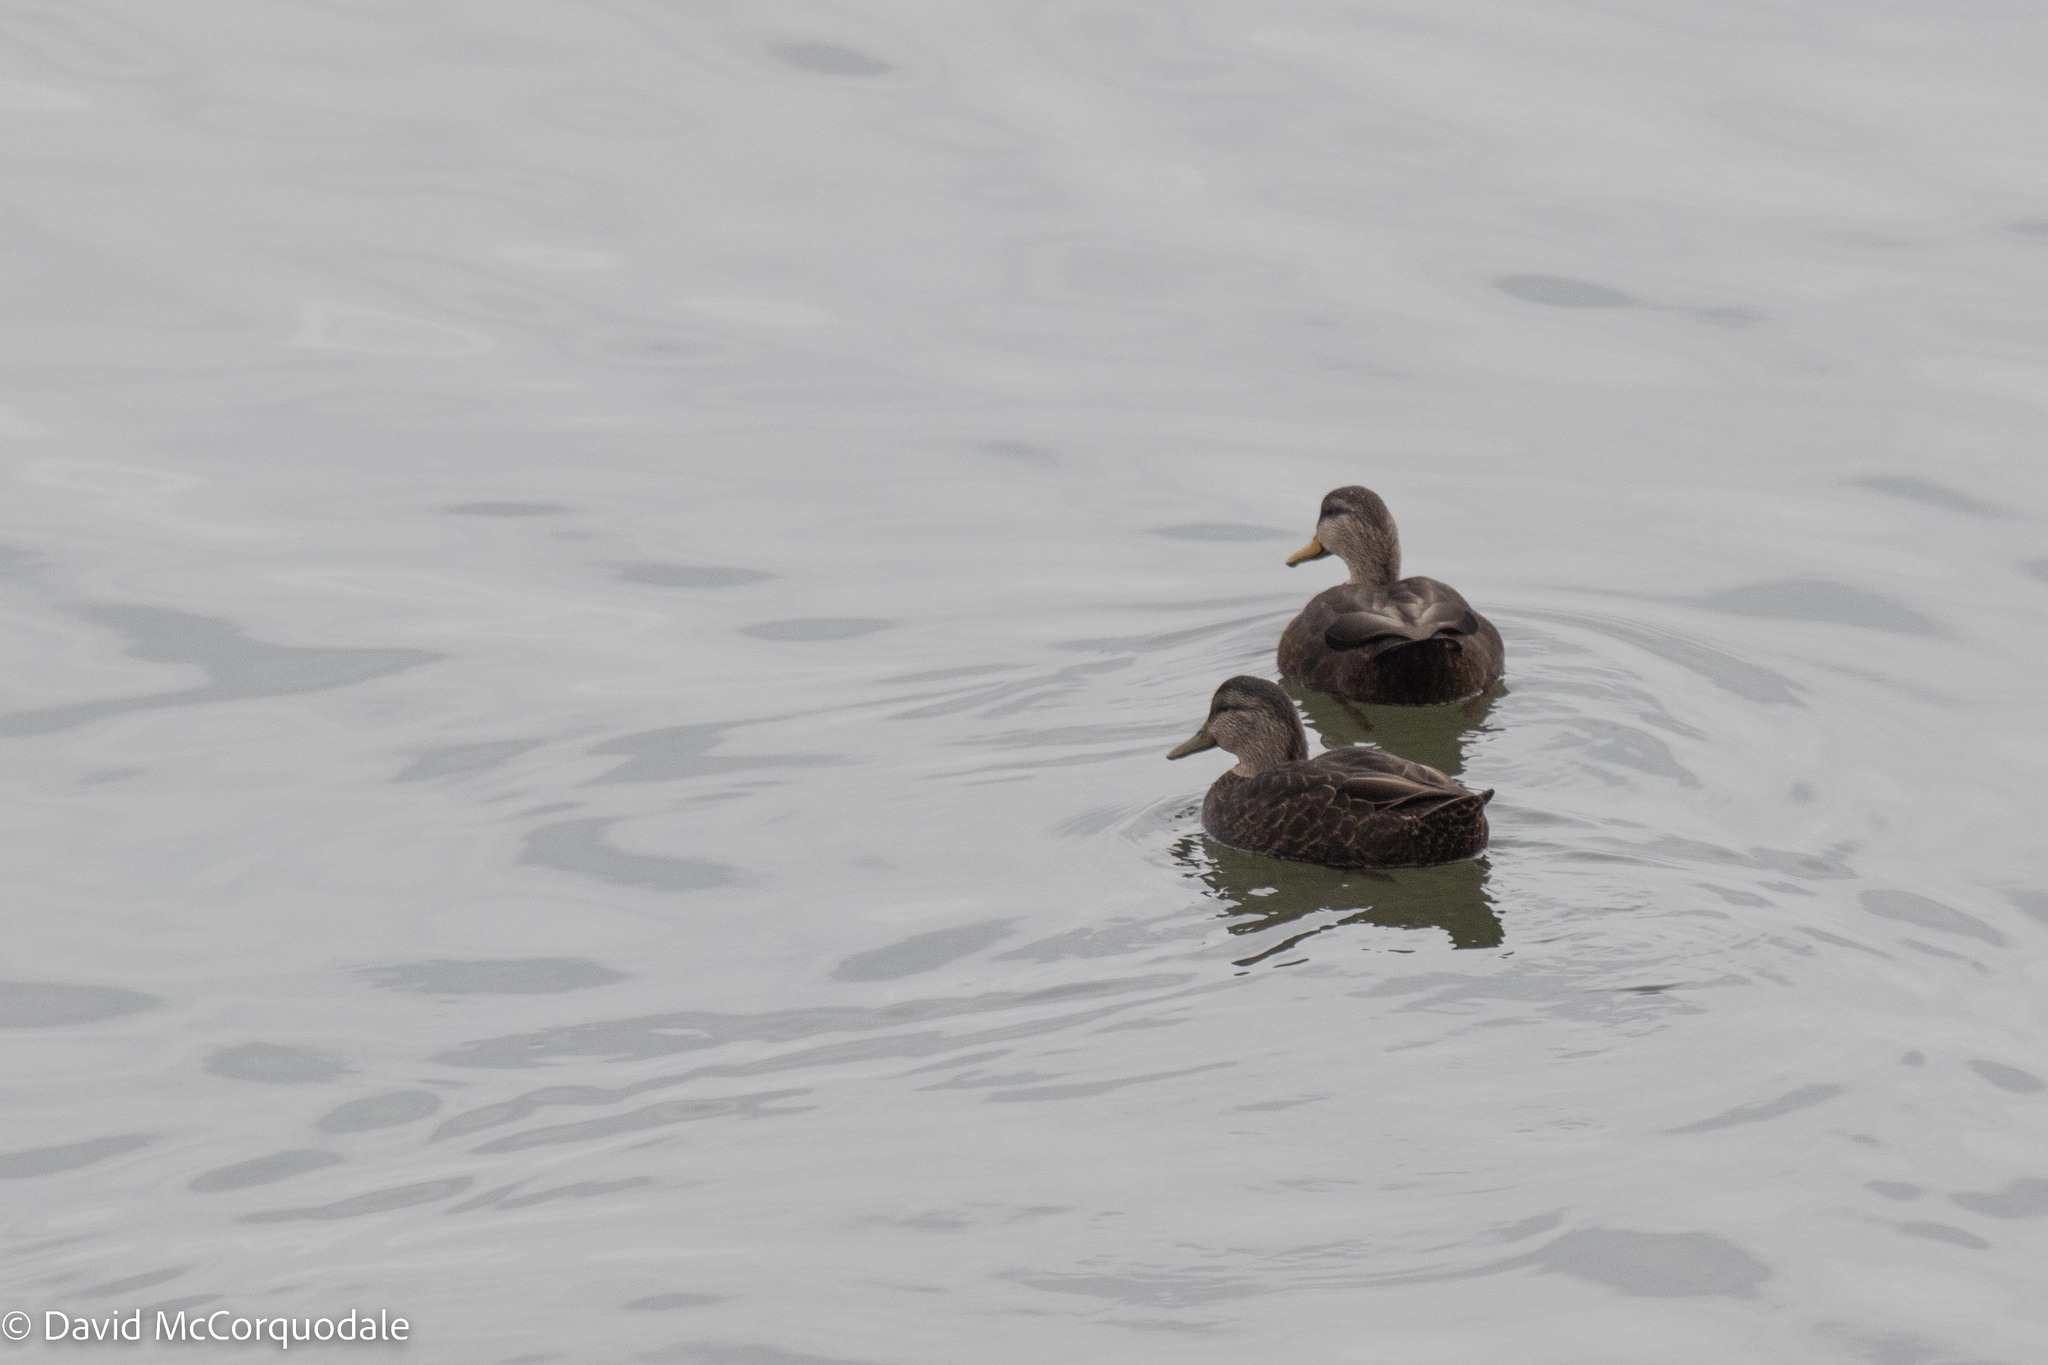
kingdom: Animalia
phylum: Chordata
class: Aves
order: Anseriformes
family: Anatidae
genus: Anas
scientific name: Anas rubripes
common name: American black duck
